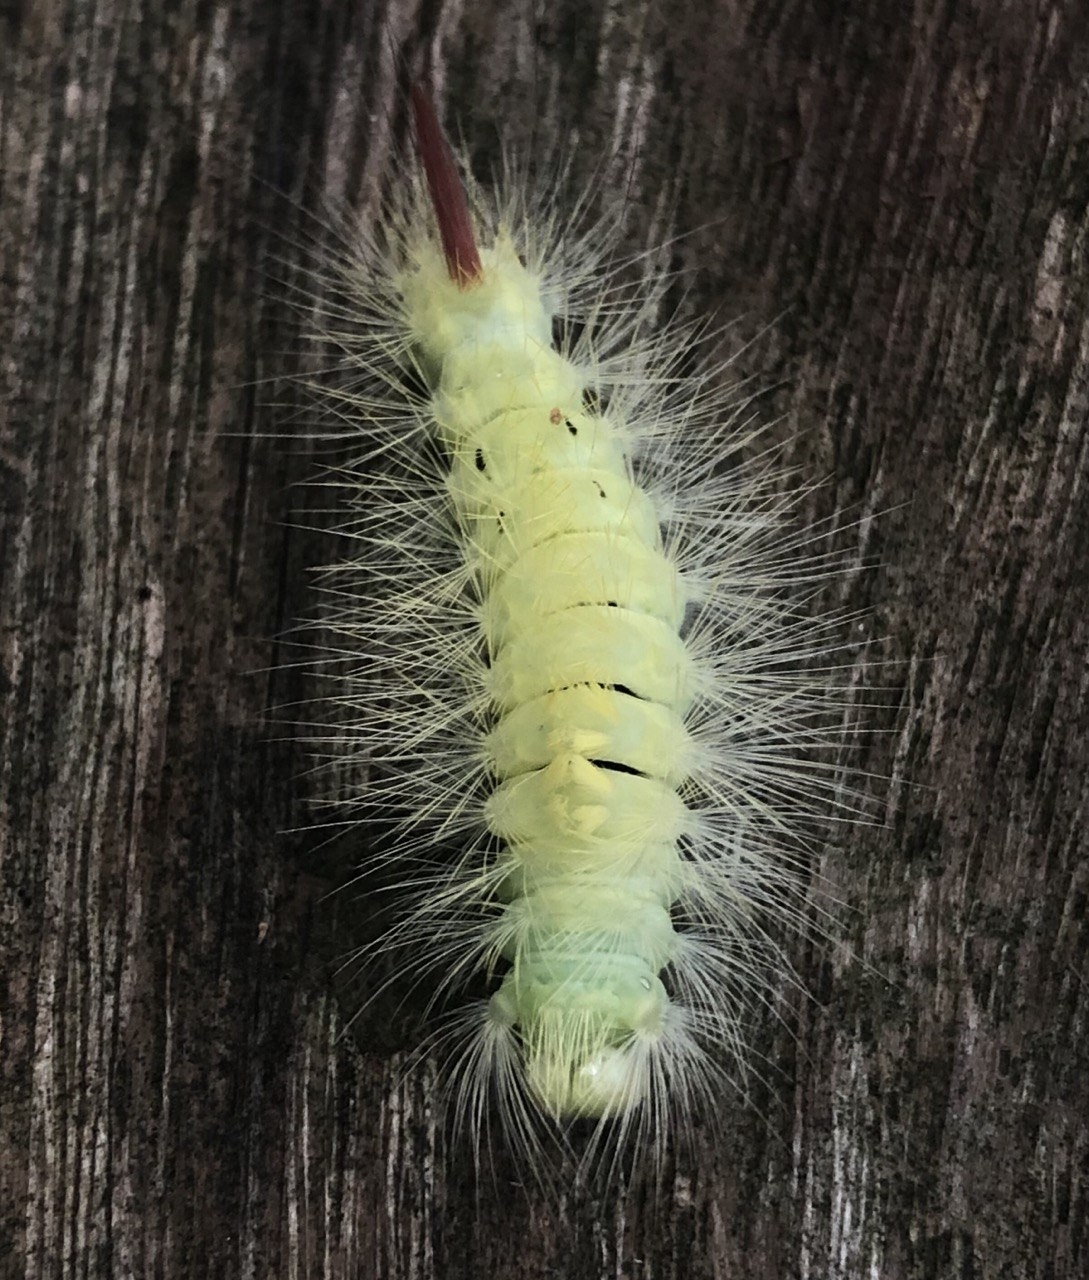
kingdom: Animalia
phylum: Arthropoda
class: Insecta
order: Lepidoptera
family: Erebidae
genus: Calliteara
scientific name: Calliteara pudibunda
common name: Pale tussock
